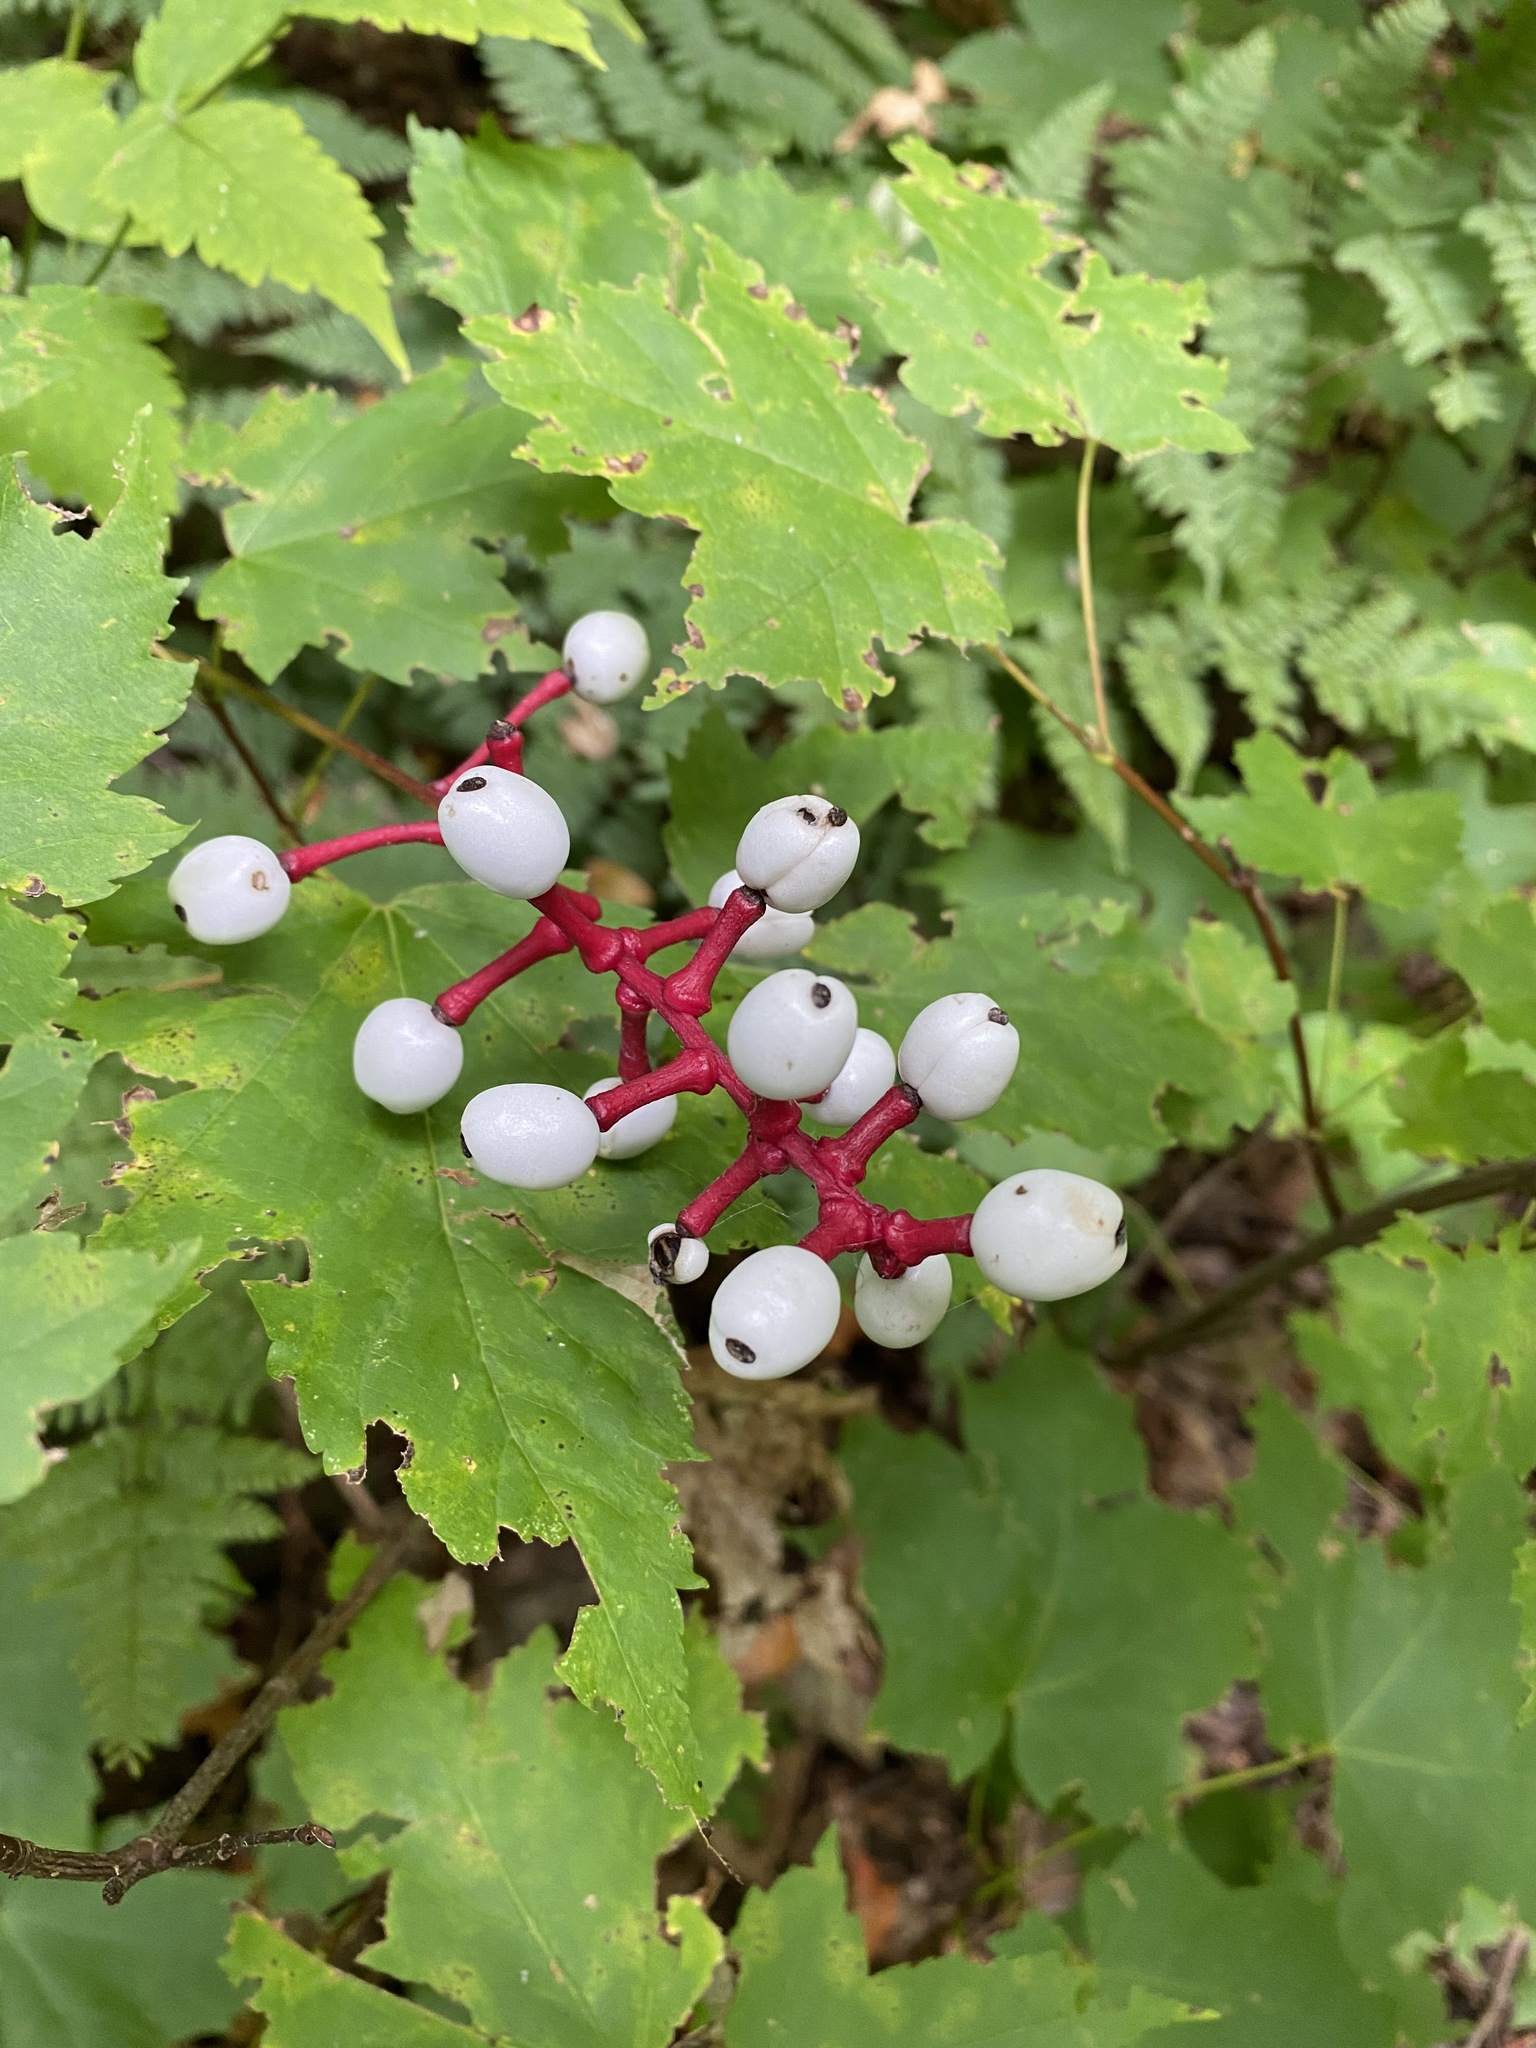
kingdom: Plantae
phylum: Tracheophyta
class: Magnoliopsida
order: Ranunculales
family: Ranunculaceae
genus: Actaea
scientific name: Actaea pachypoda
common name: Doll's-eyes
